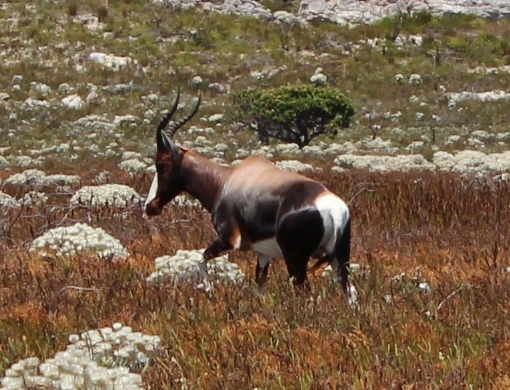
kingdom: Animalia
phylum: Chordata
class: Mammalia
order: Artiodactyla
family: Bovidae
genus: Damaliscus
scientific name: Damaliscus pygargus
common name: Bontebok
